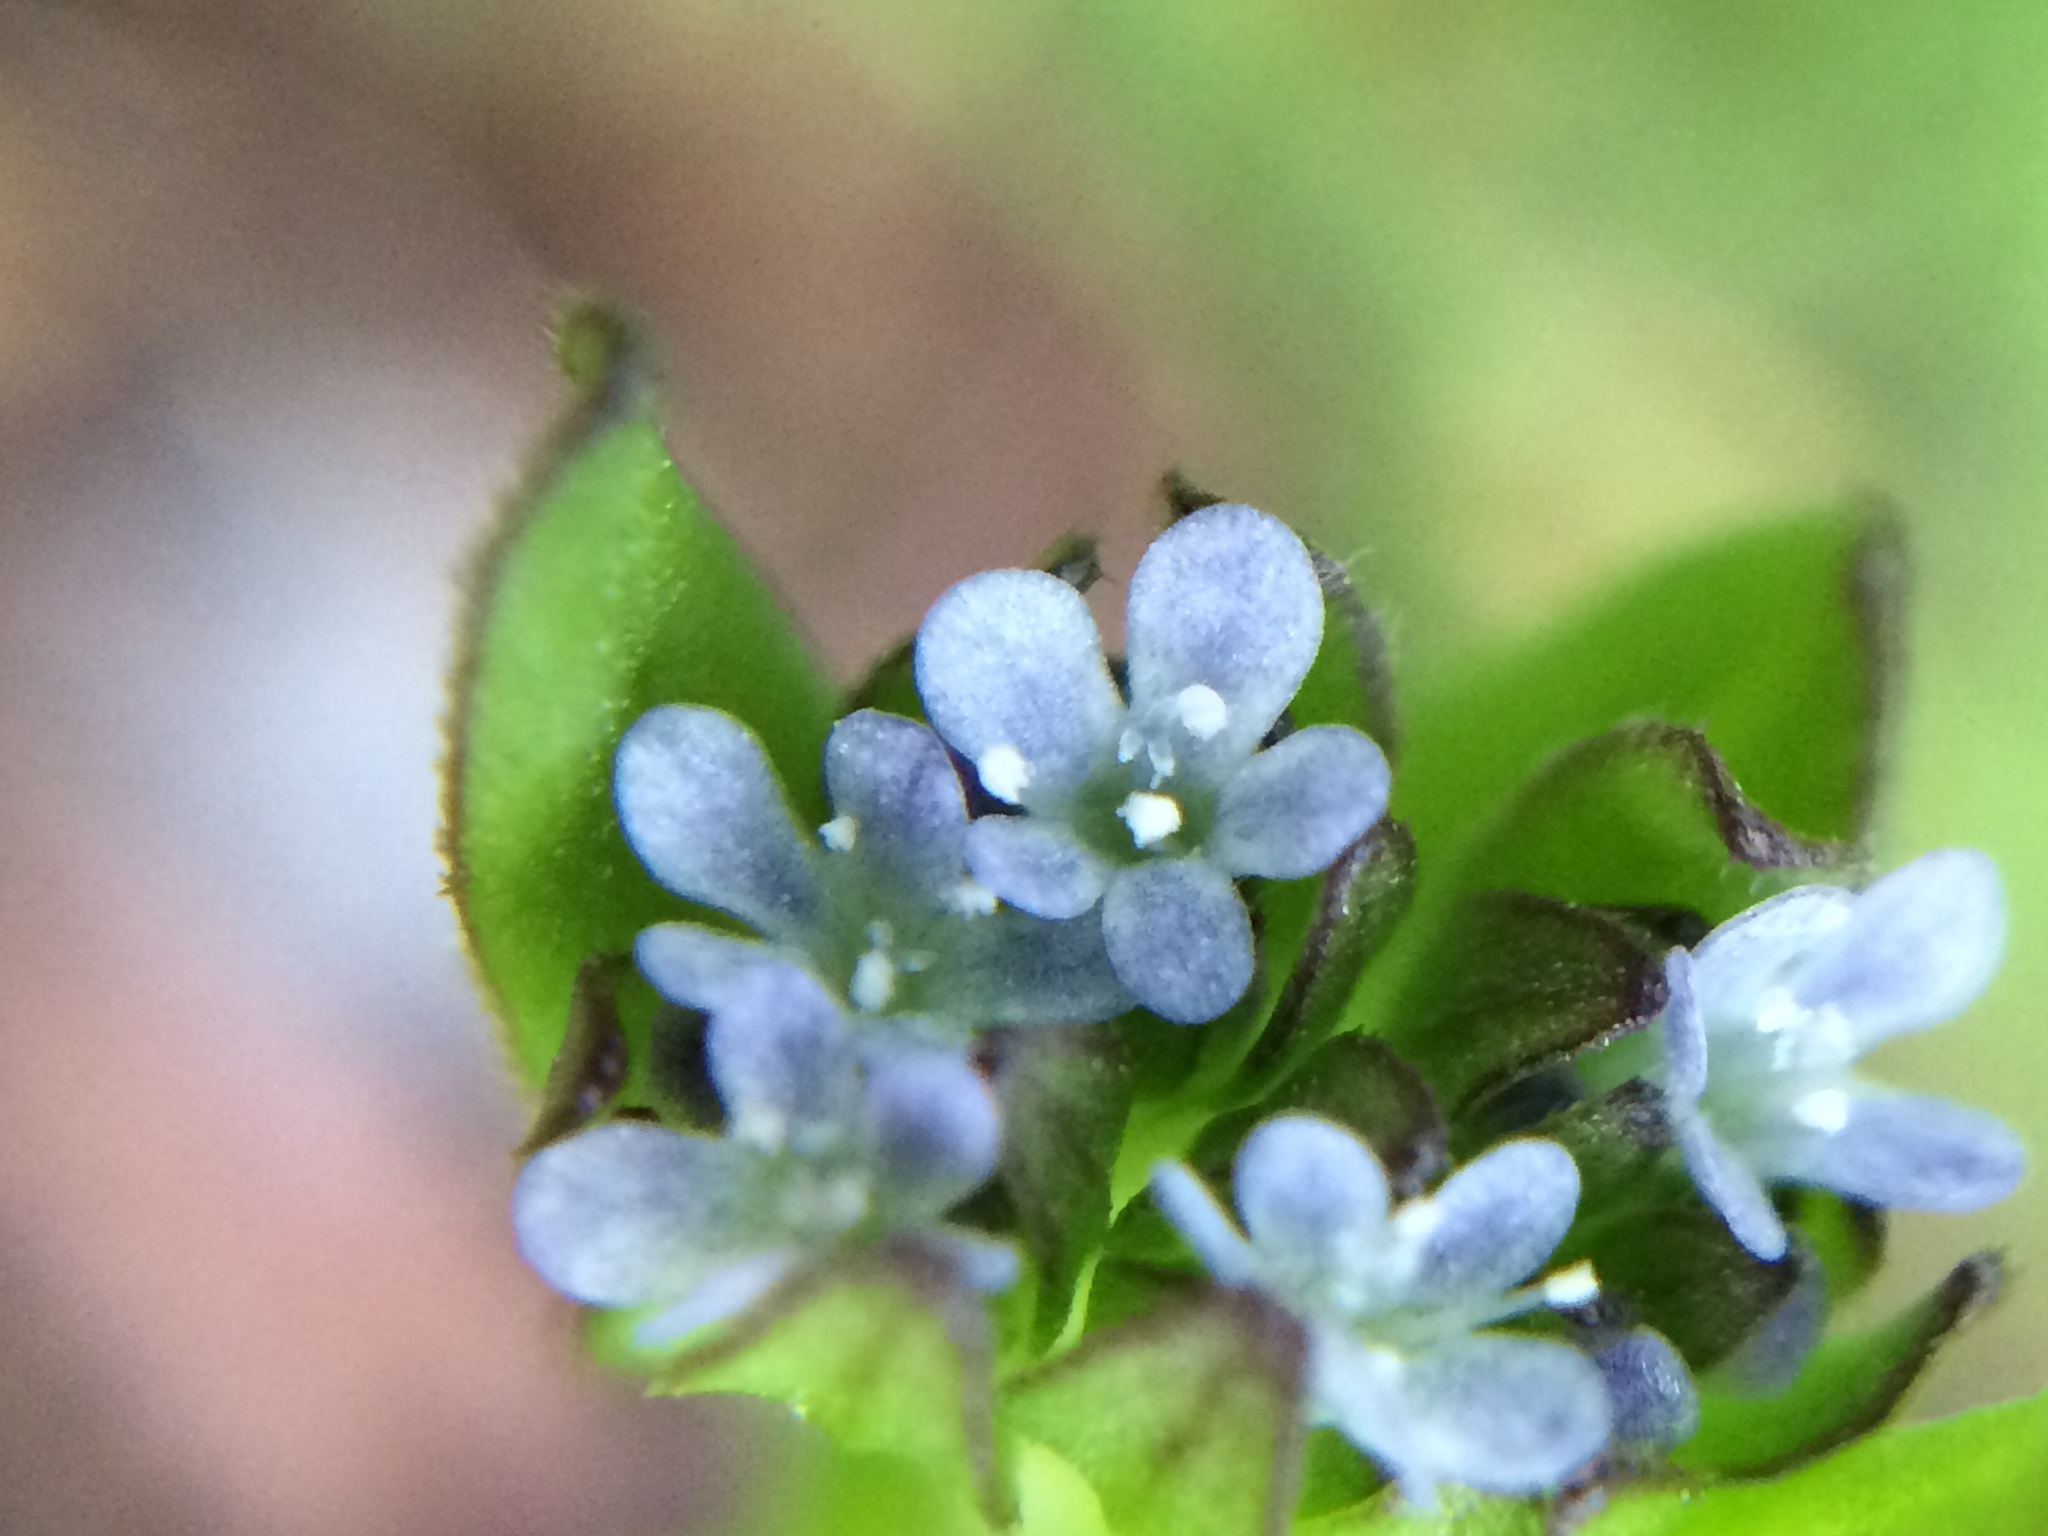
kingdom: Plantae
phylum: Tracheophyta
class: Magnoliopsida
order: Dipsacales
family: Caprifoliaceae
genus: Valerianella
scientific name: Valerianella locusta
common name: Common cornsalad
